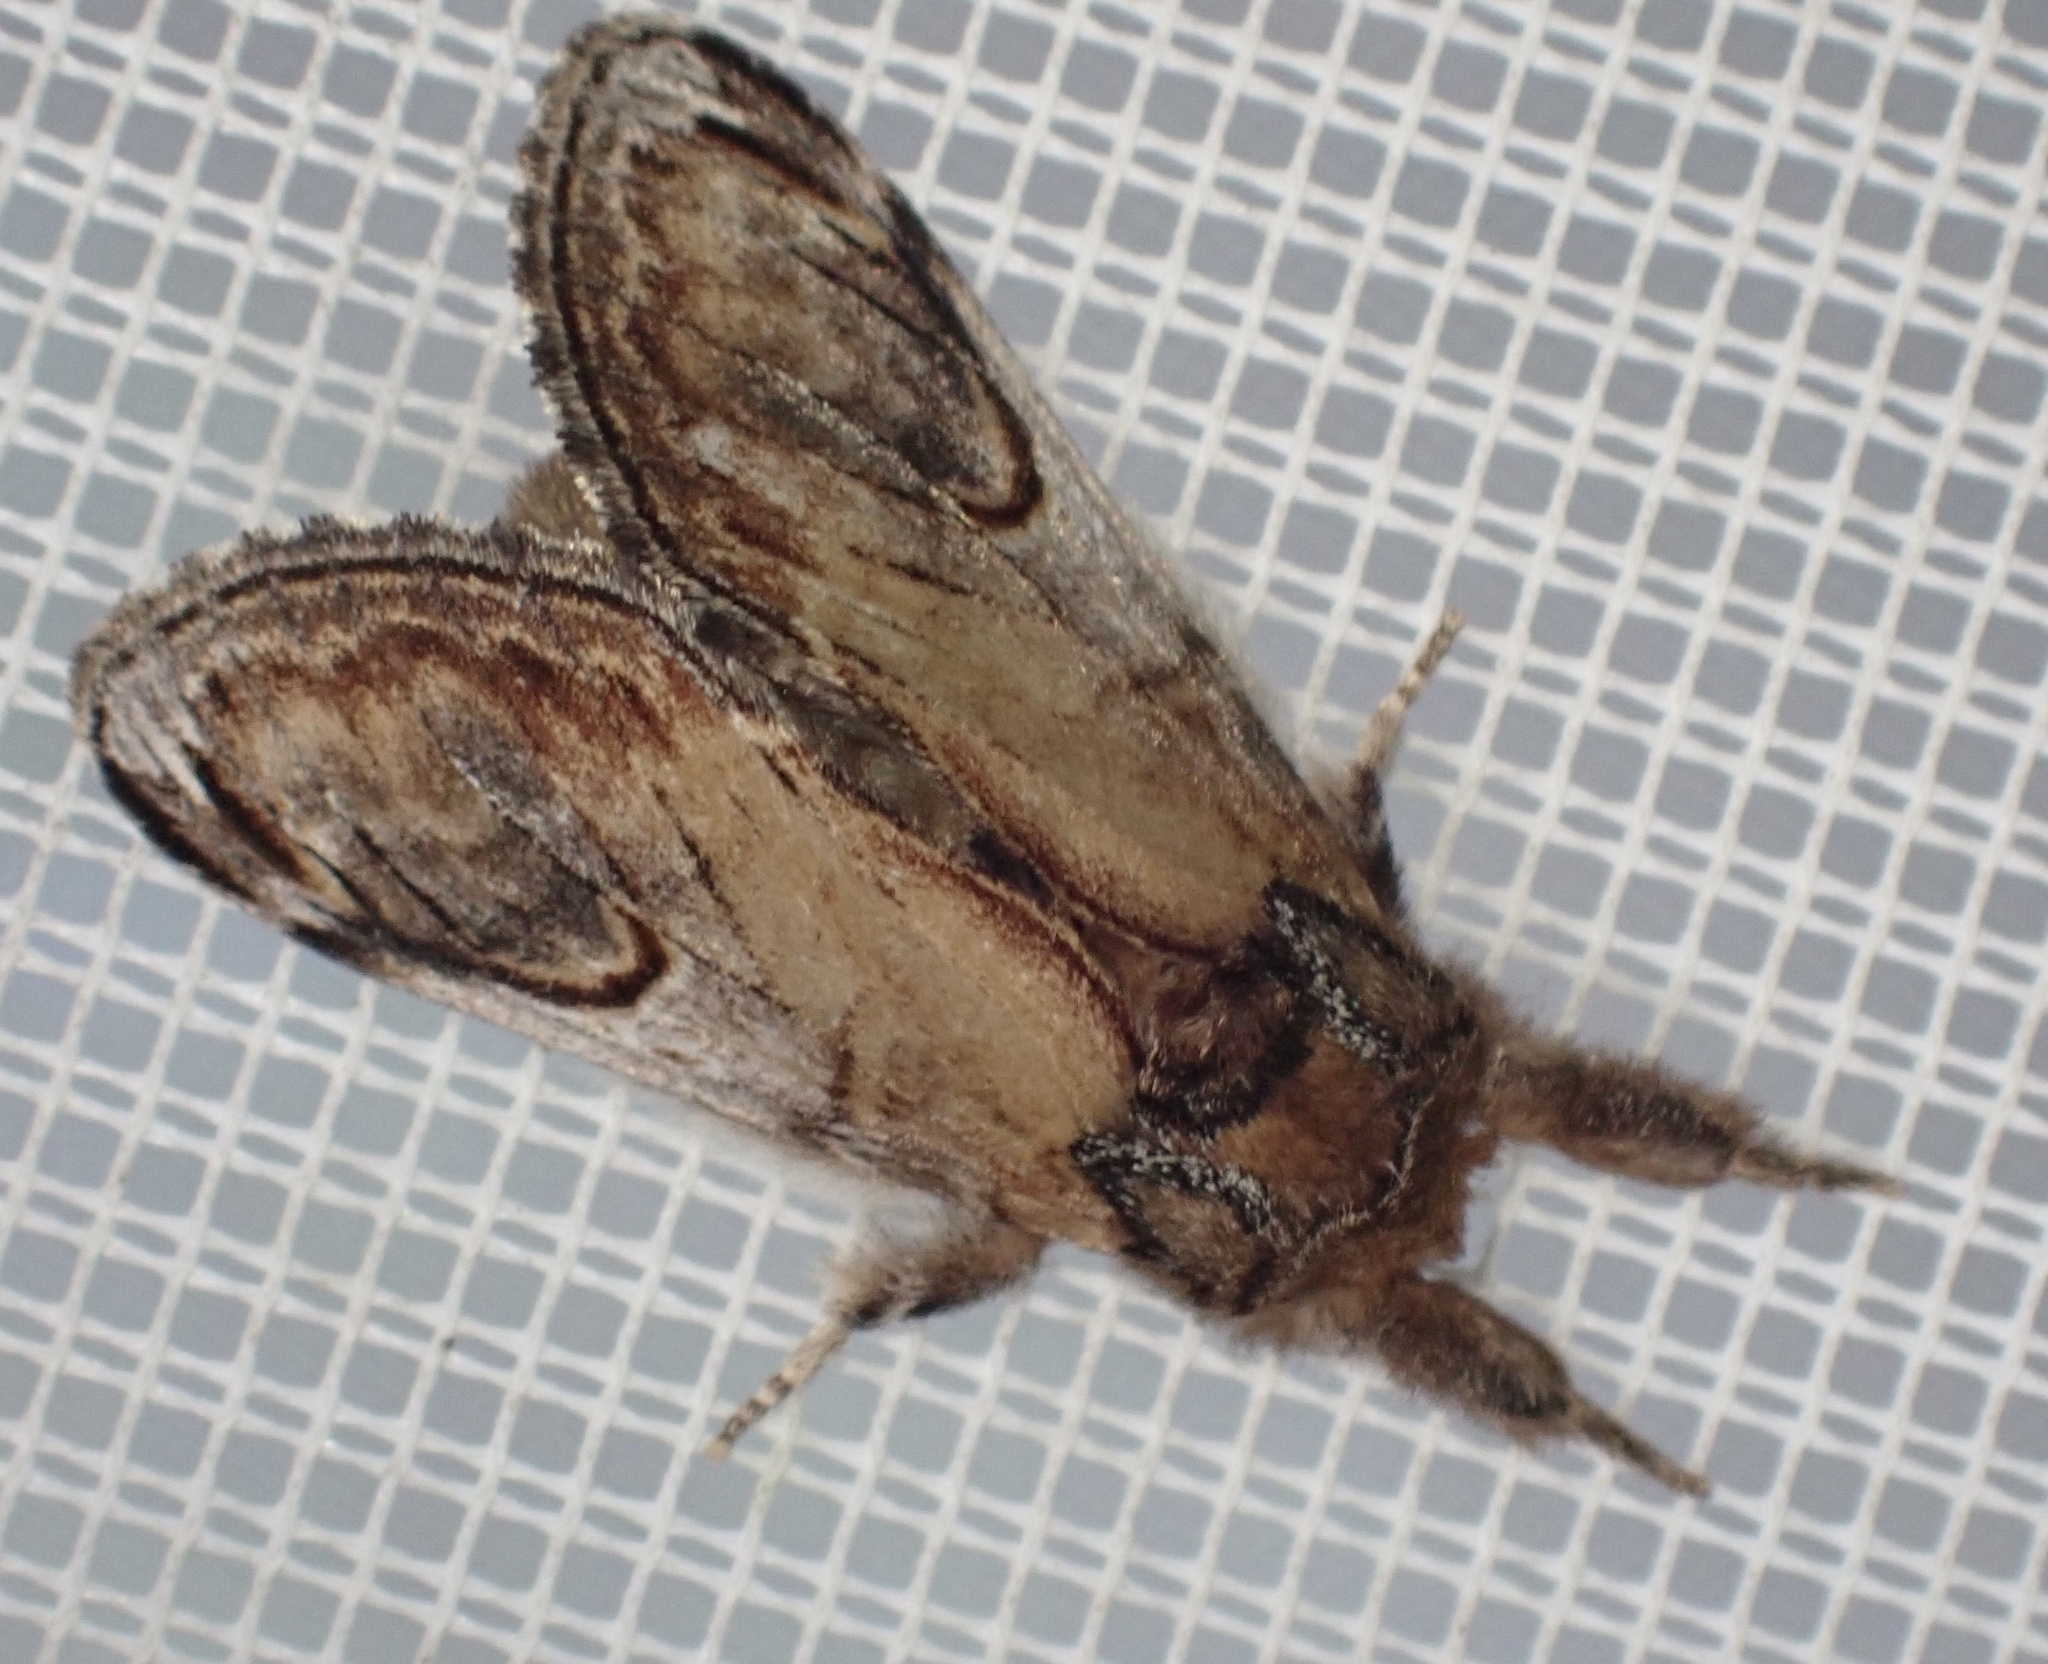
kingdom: Animalia
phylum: Arthropoda
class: Insecta
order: Lepidoptera
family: Notodontidae
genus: Notodonta
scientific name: Notodonta ziczac
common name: Pebble prominent
